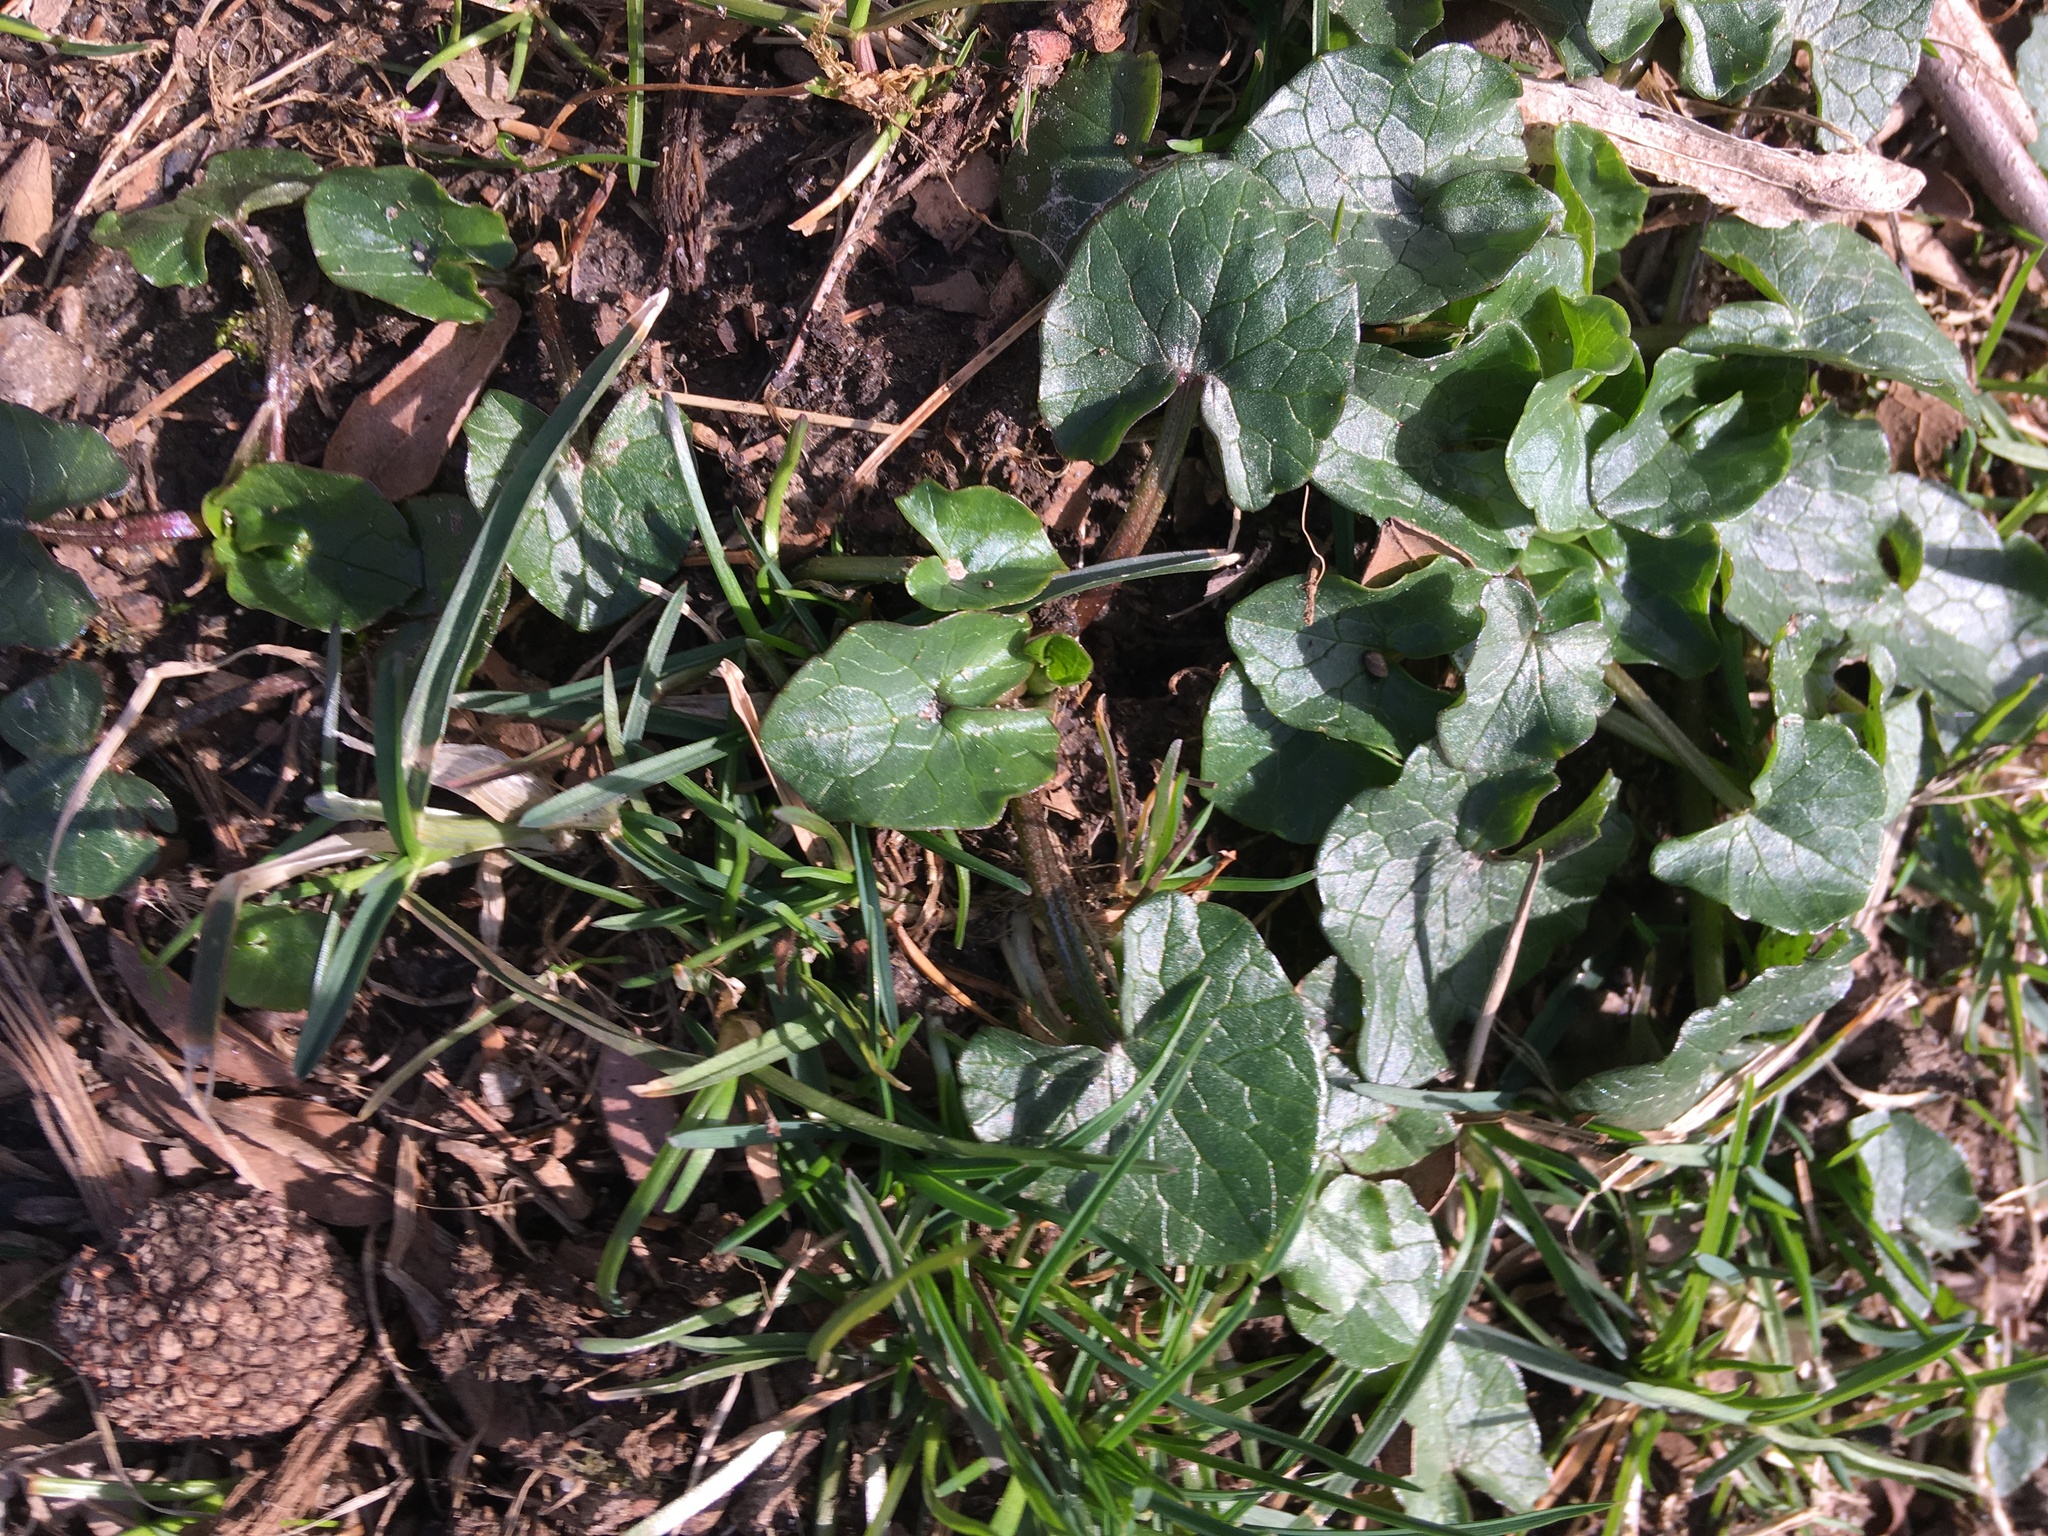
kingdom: Plantae
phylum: Tracheophyta
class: Magnoliopsida
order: Ranunculales
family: Ranunculaceae
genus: Ficaria
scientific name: Ficaria verna
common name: Lesser celandine
